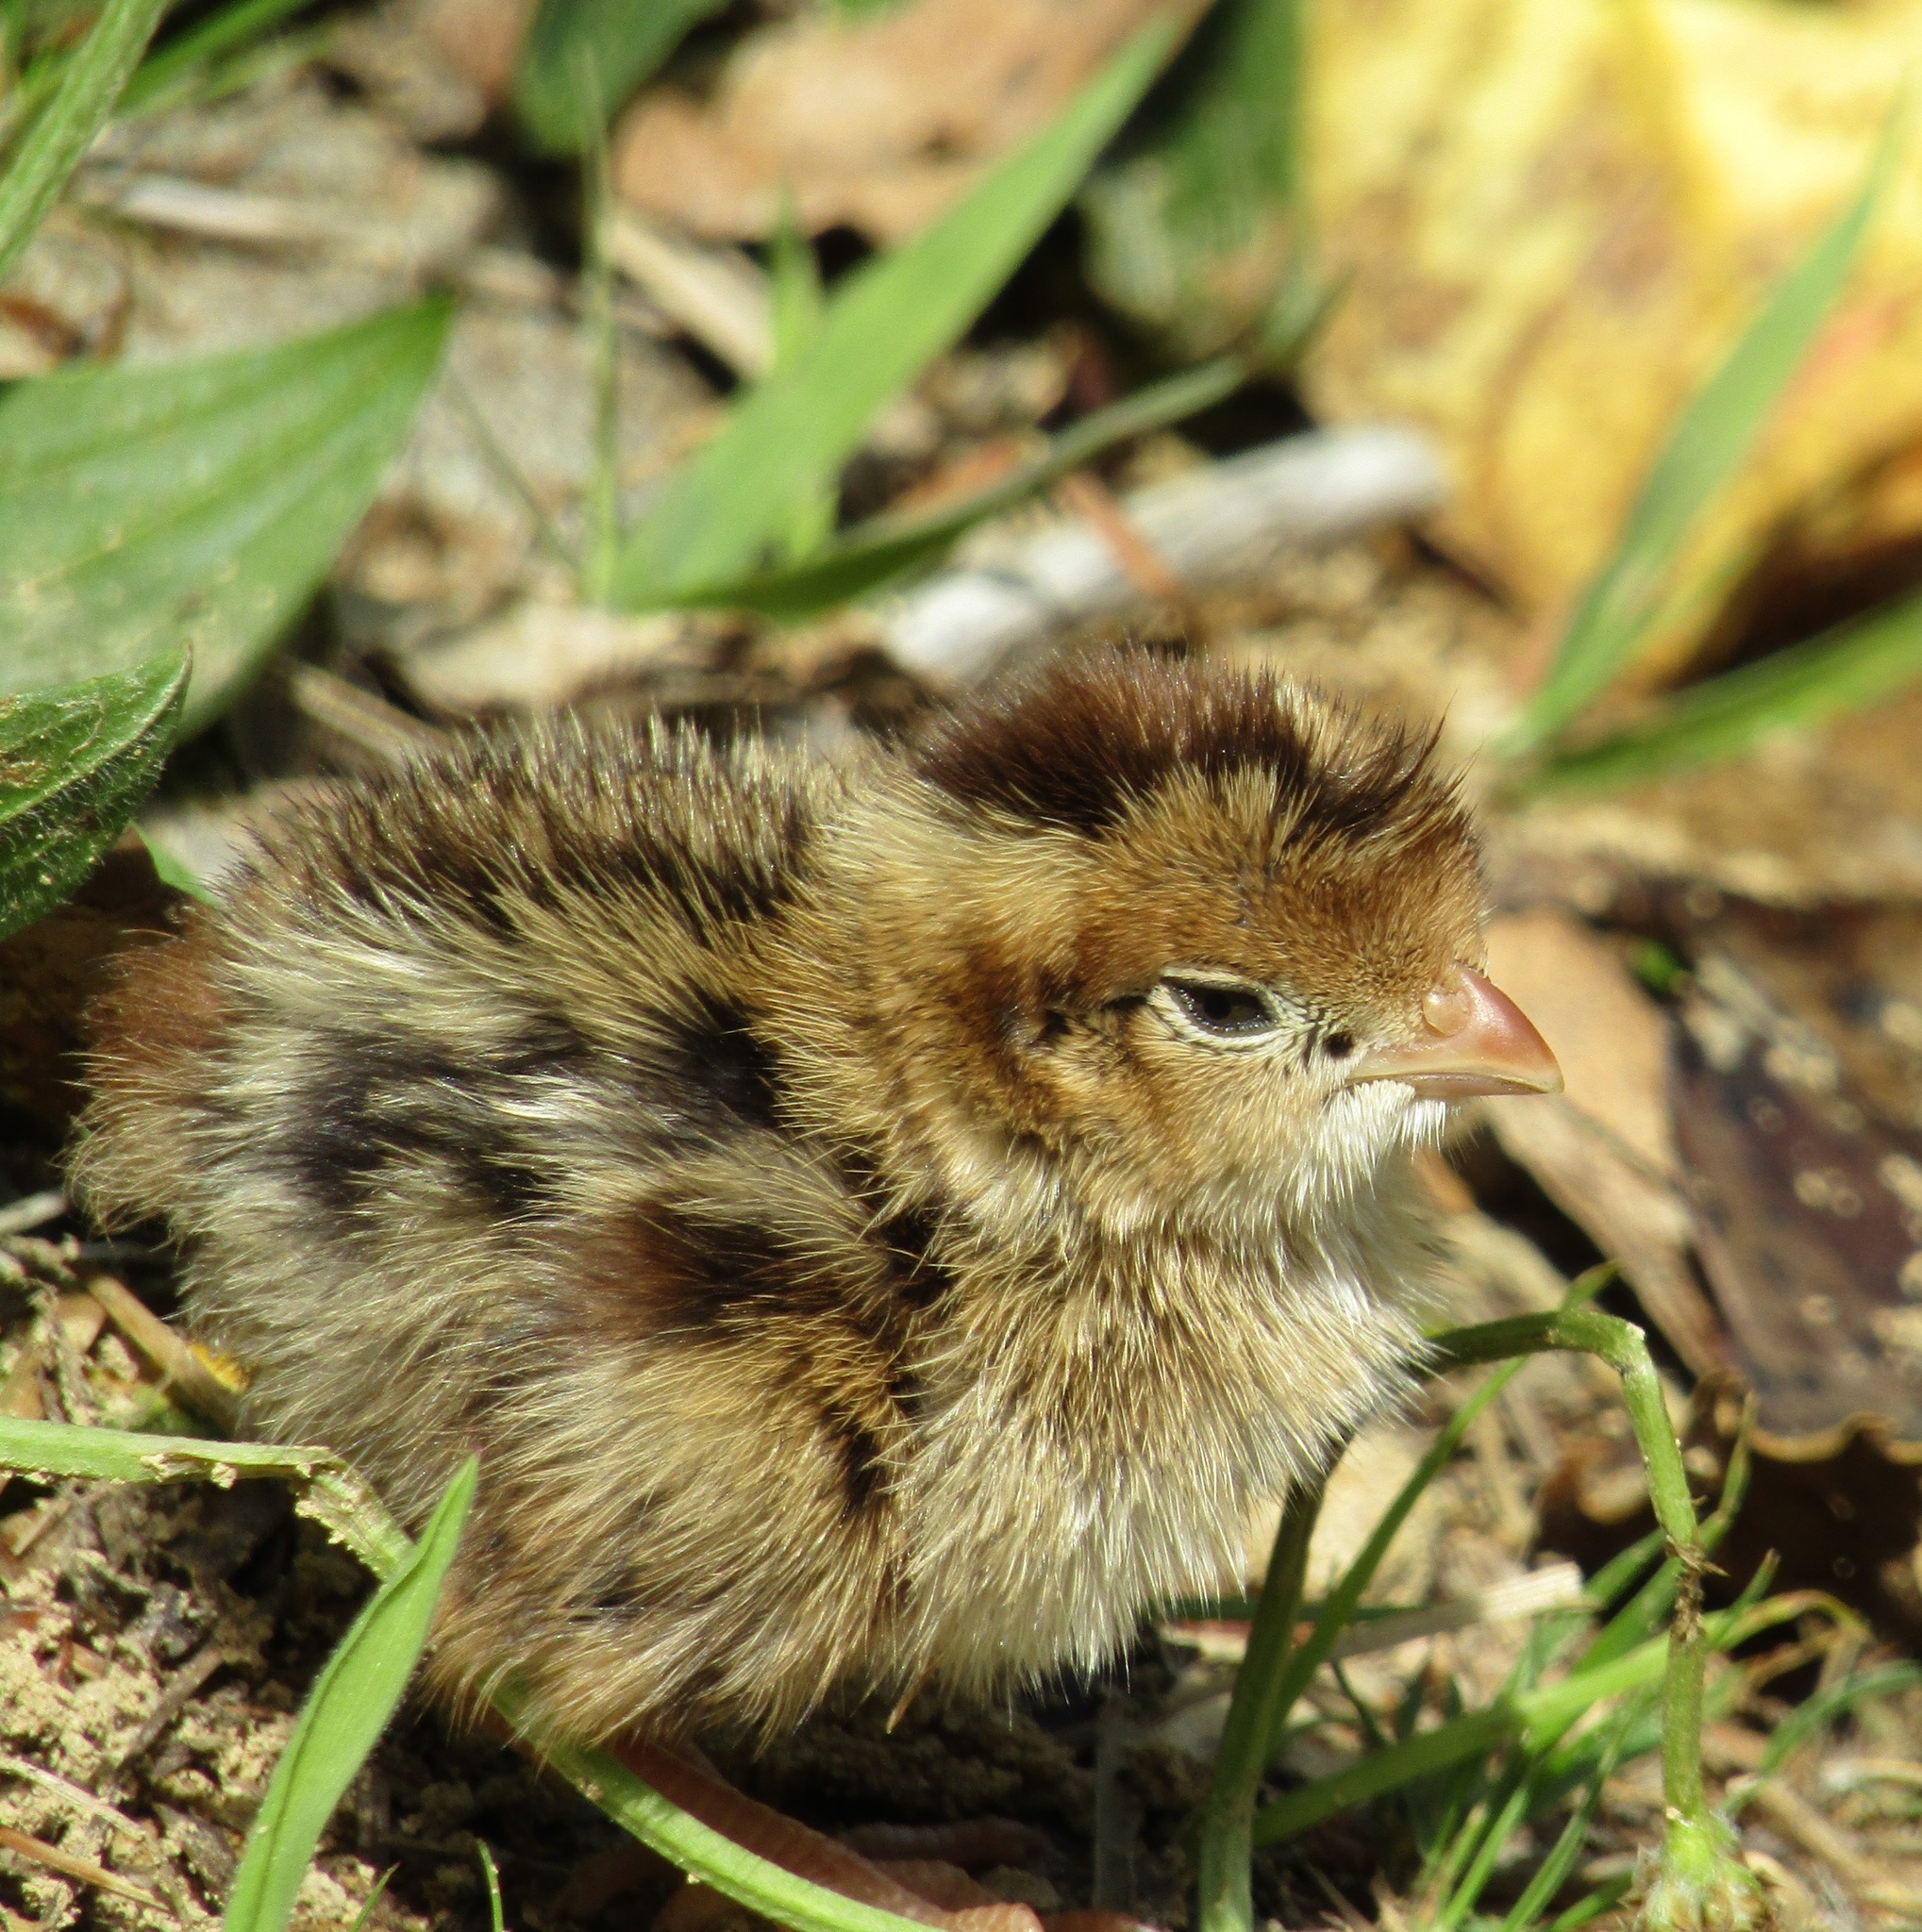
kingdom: Animalia
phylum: Chordata
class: Aves
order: Galliformes
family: Odontophoridae
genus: Callipepla
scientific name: Callipepla californica
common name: California quail
